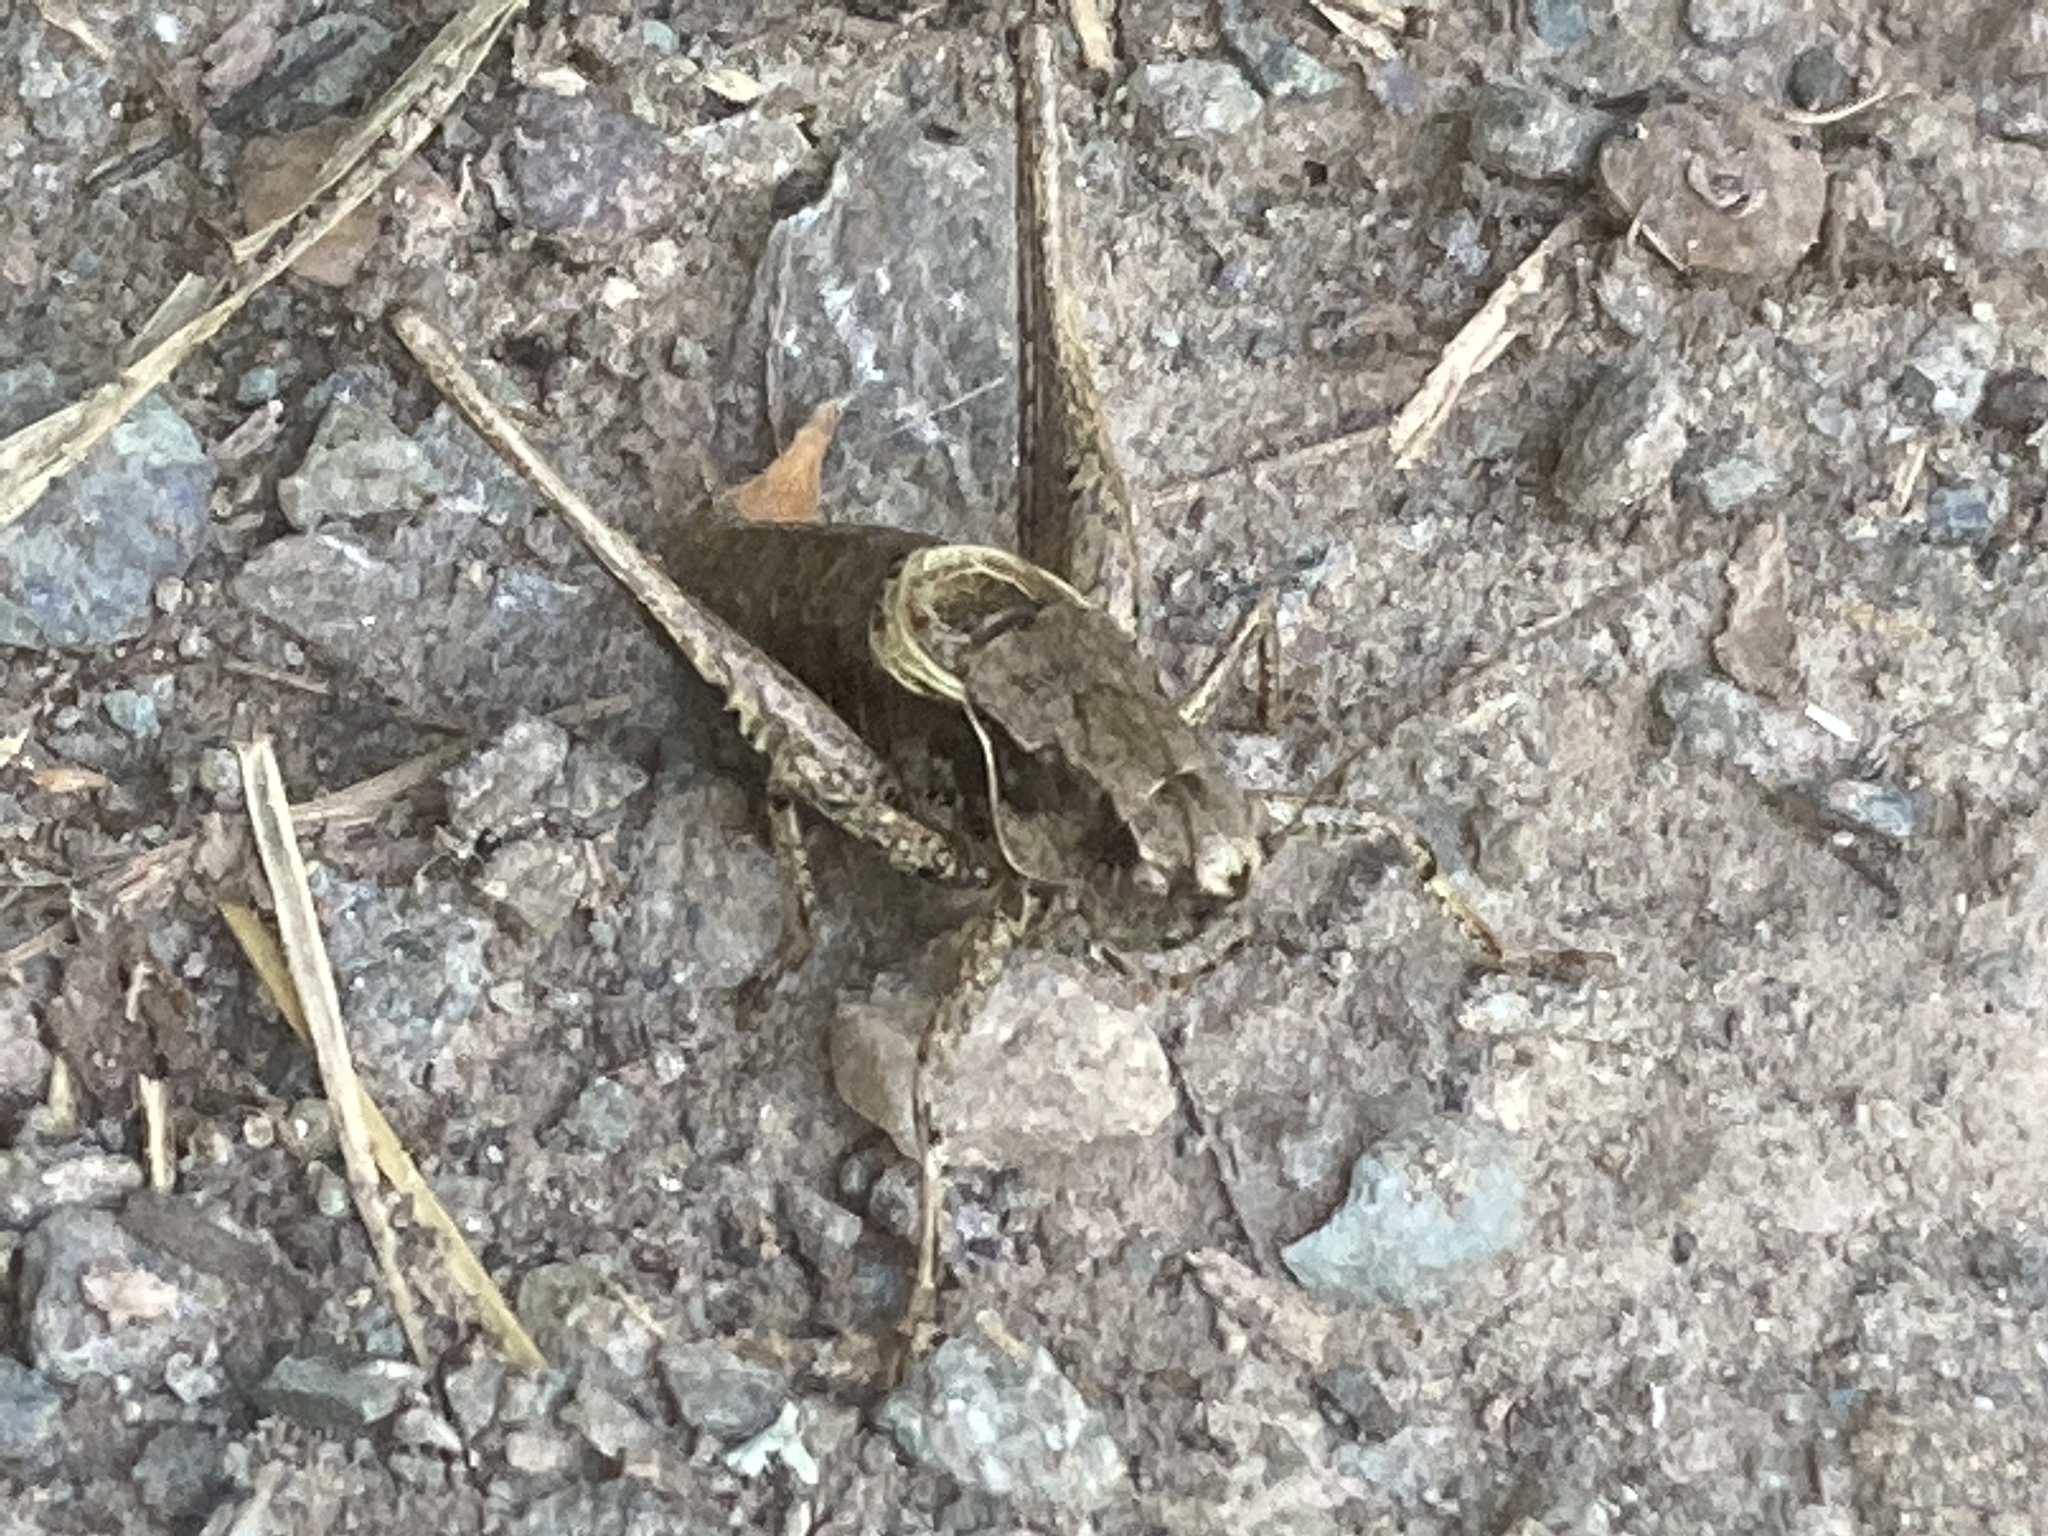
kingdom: Animalia
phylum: Arthropoda
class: Insecta
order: Orthoptera
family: Tettigoniidae
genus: Pholidoptera
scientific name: Pholidoptera griseoaptera
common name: Dark bush-cricket
